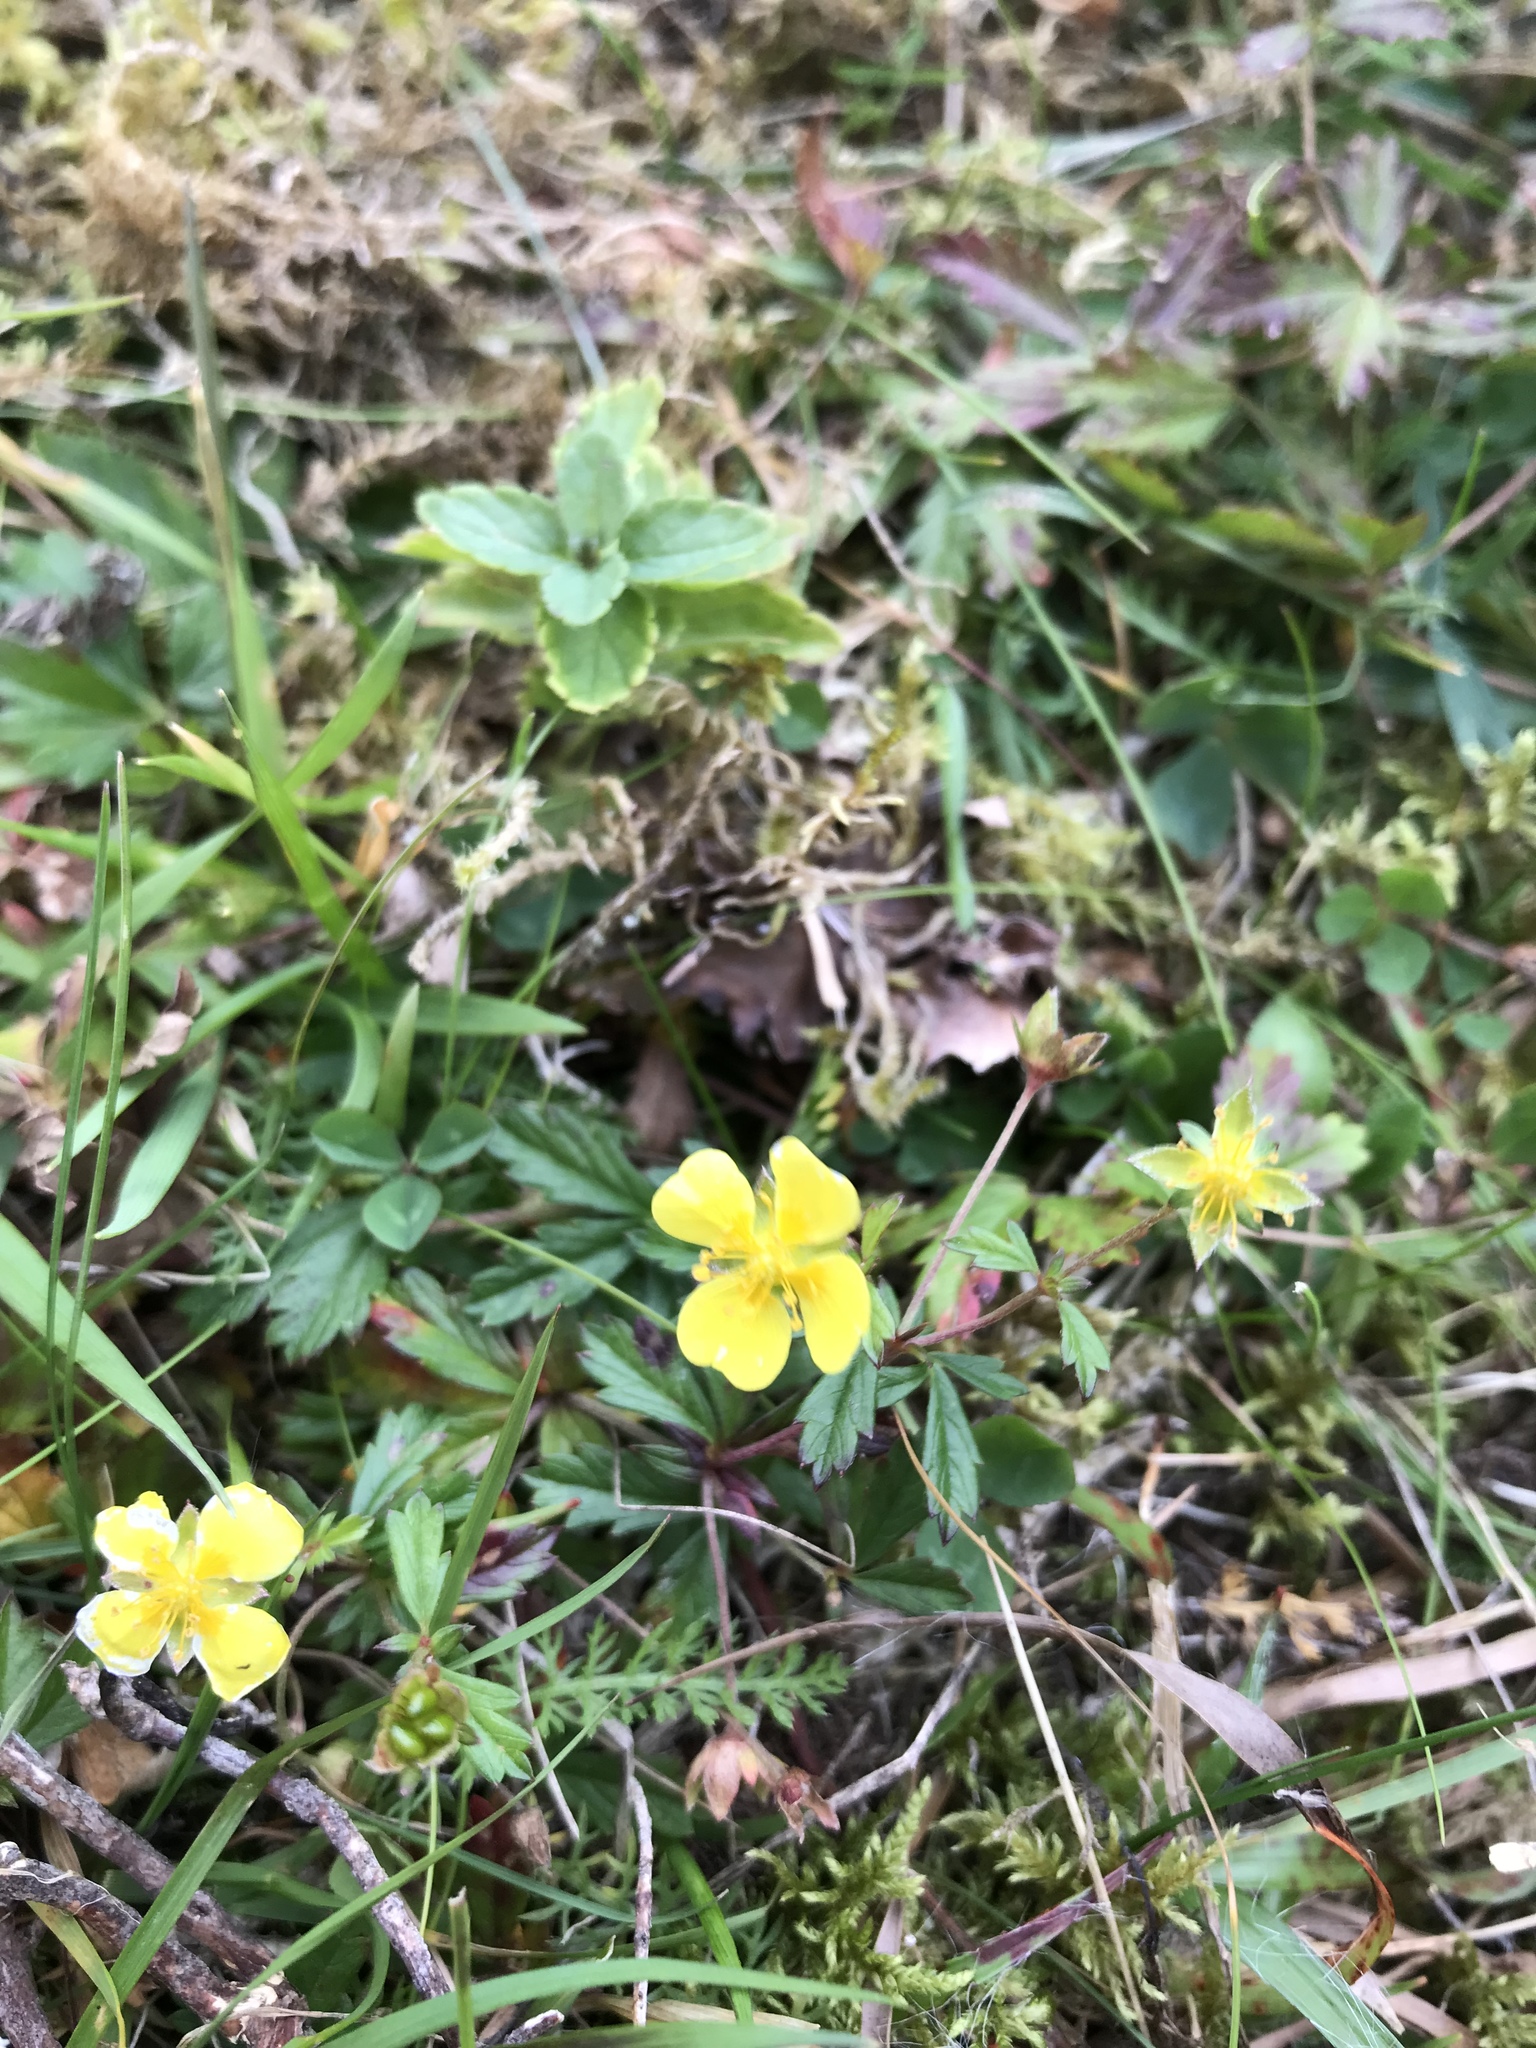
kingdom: Plantae
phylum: Tracheophyta
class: Magnoliopsida
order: Rosales
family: Rosaceae
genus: Potentilla
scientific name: Potentilla erecta
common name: Tormentil
